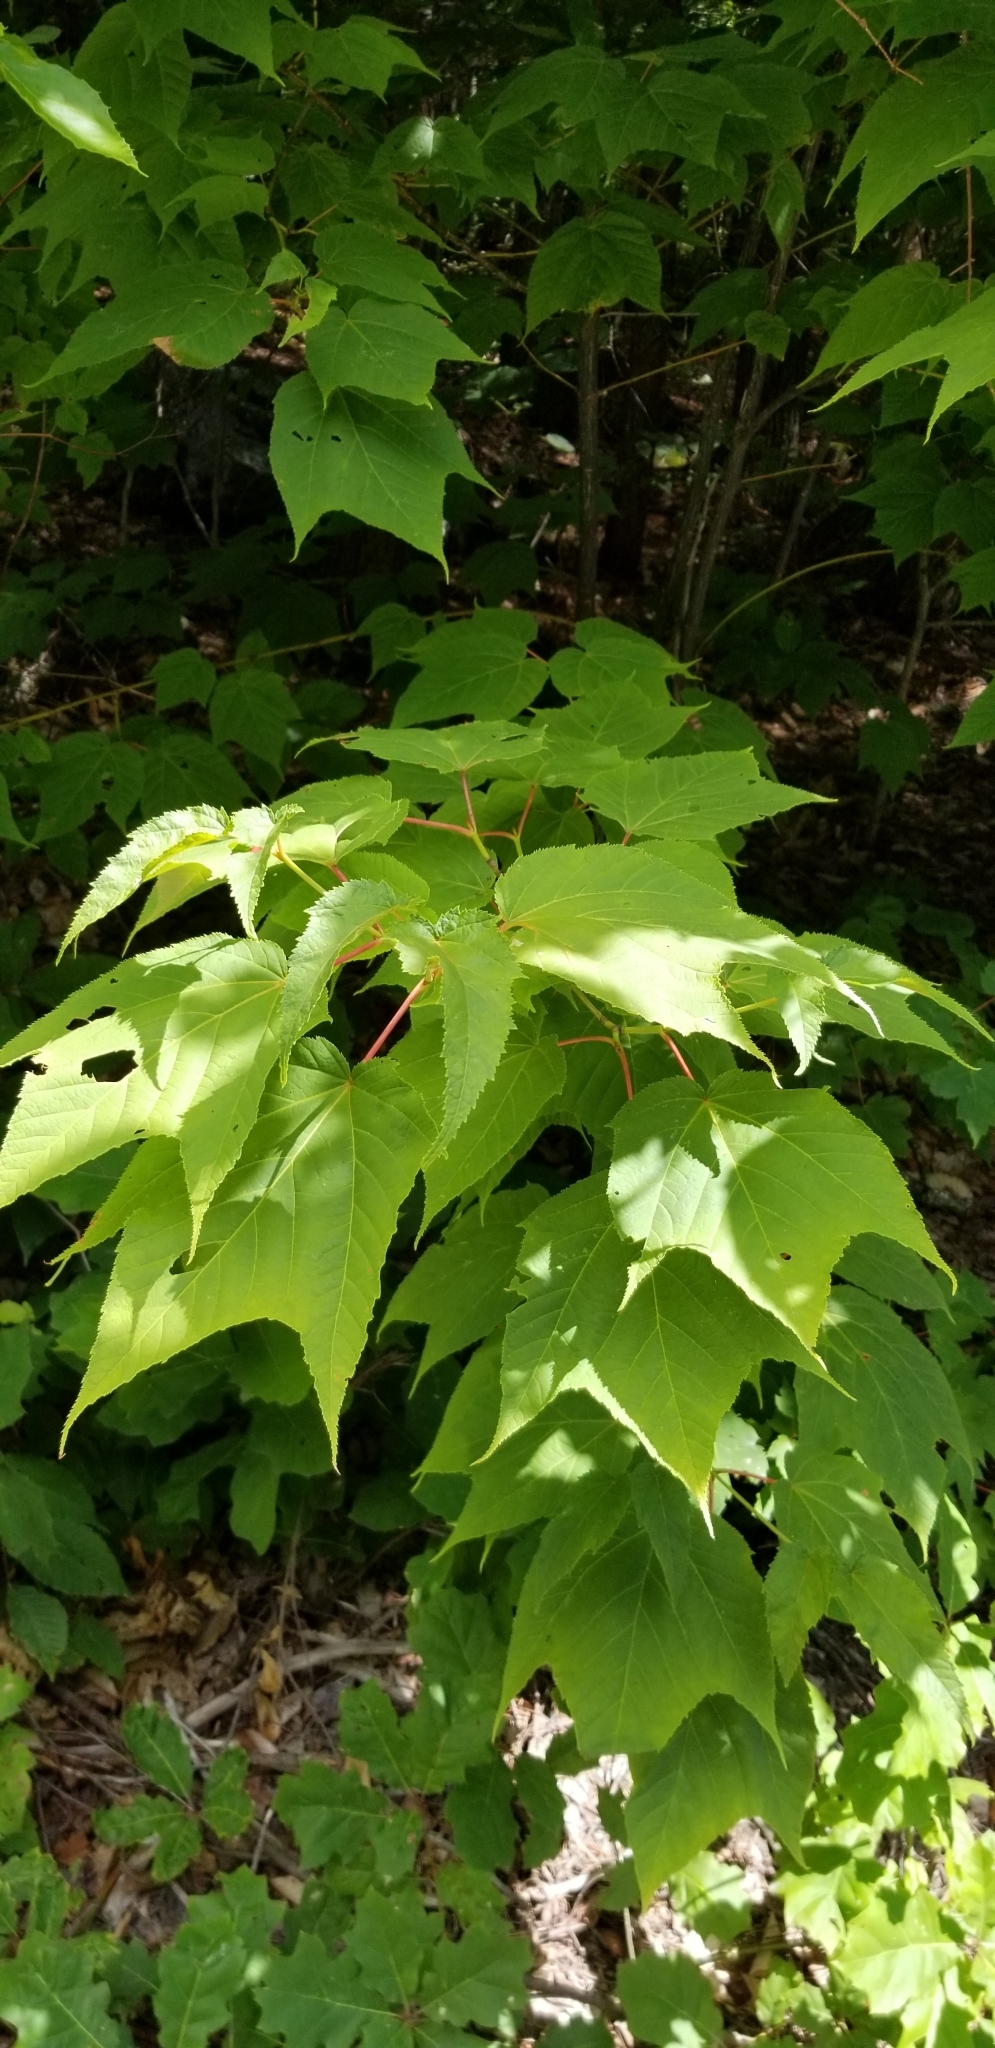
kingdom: Plantae
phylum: Tracheophyta
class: Magnoliopsida
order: Sapindales
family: Sapindaceae
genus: Acer
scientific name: Acer pensylvanicum
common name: Moosewood
